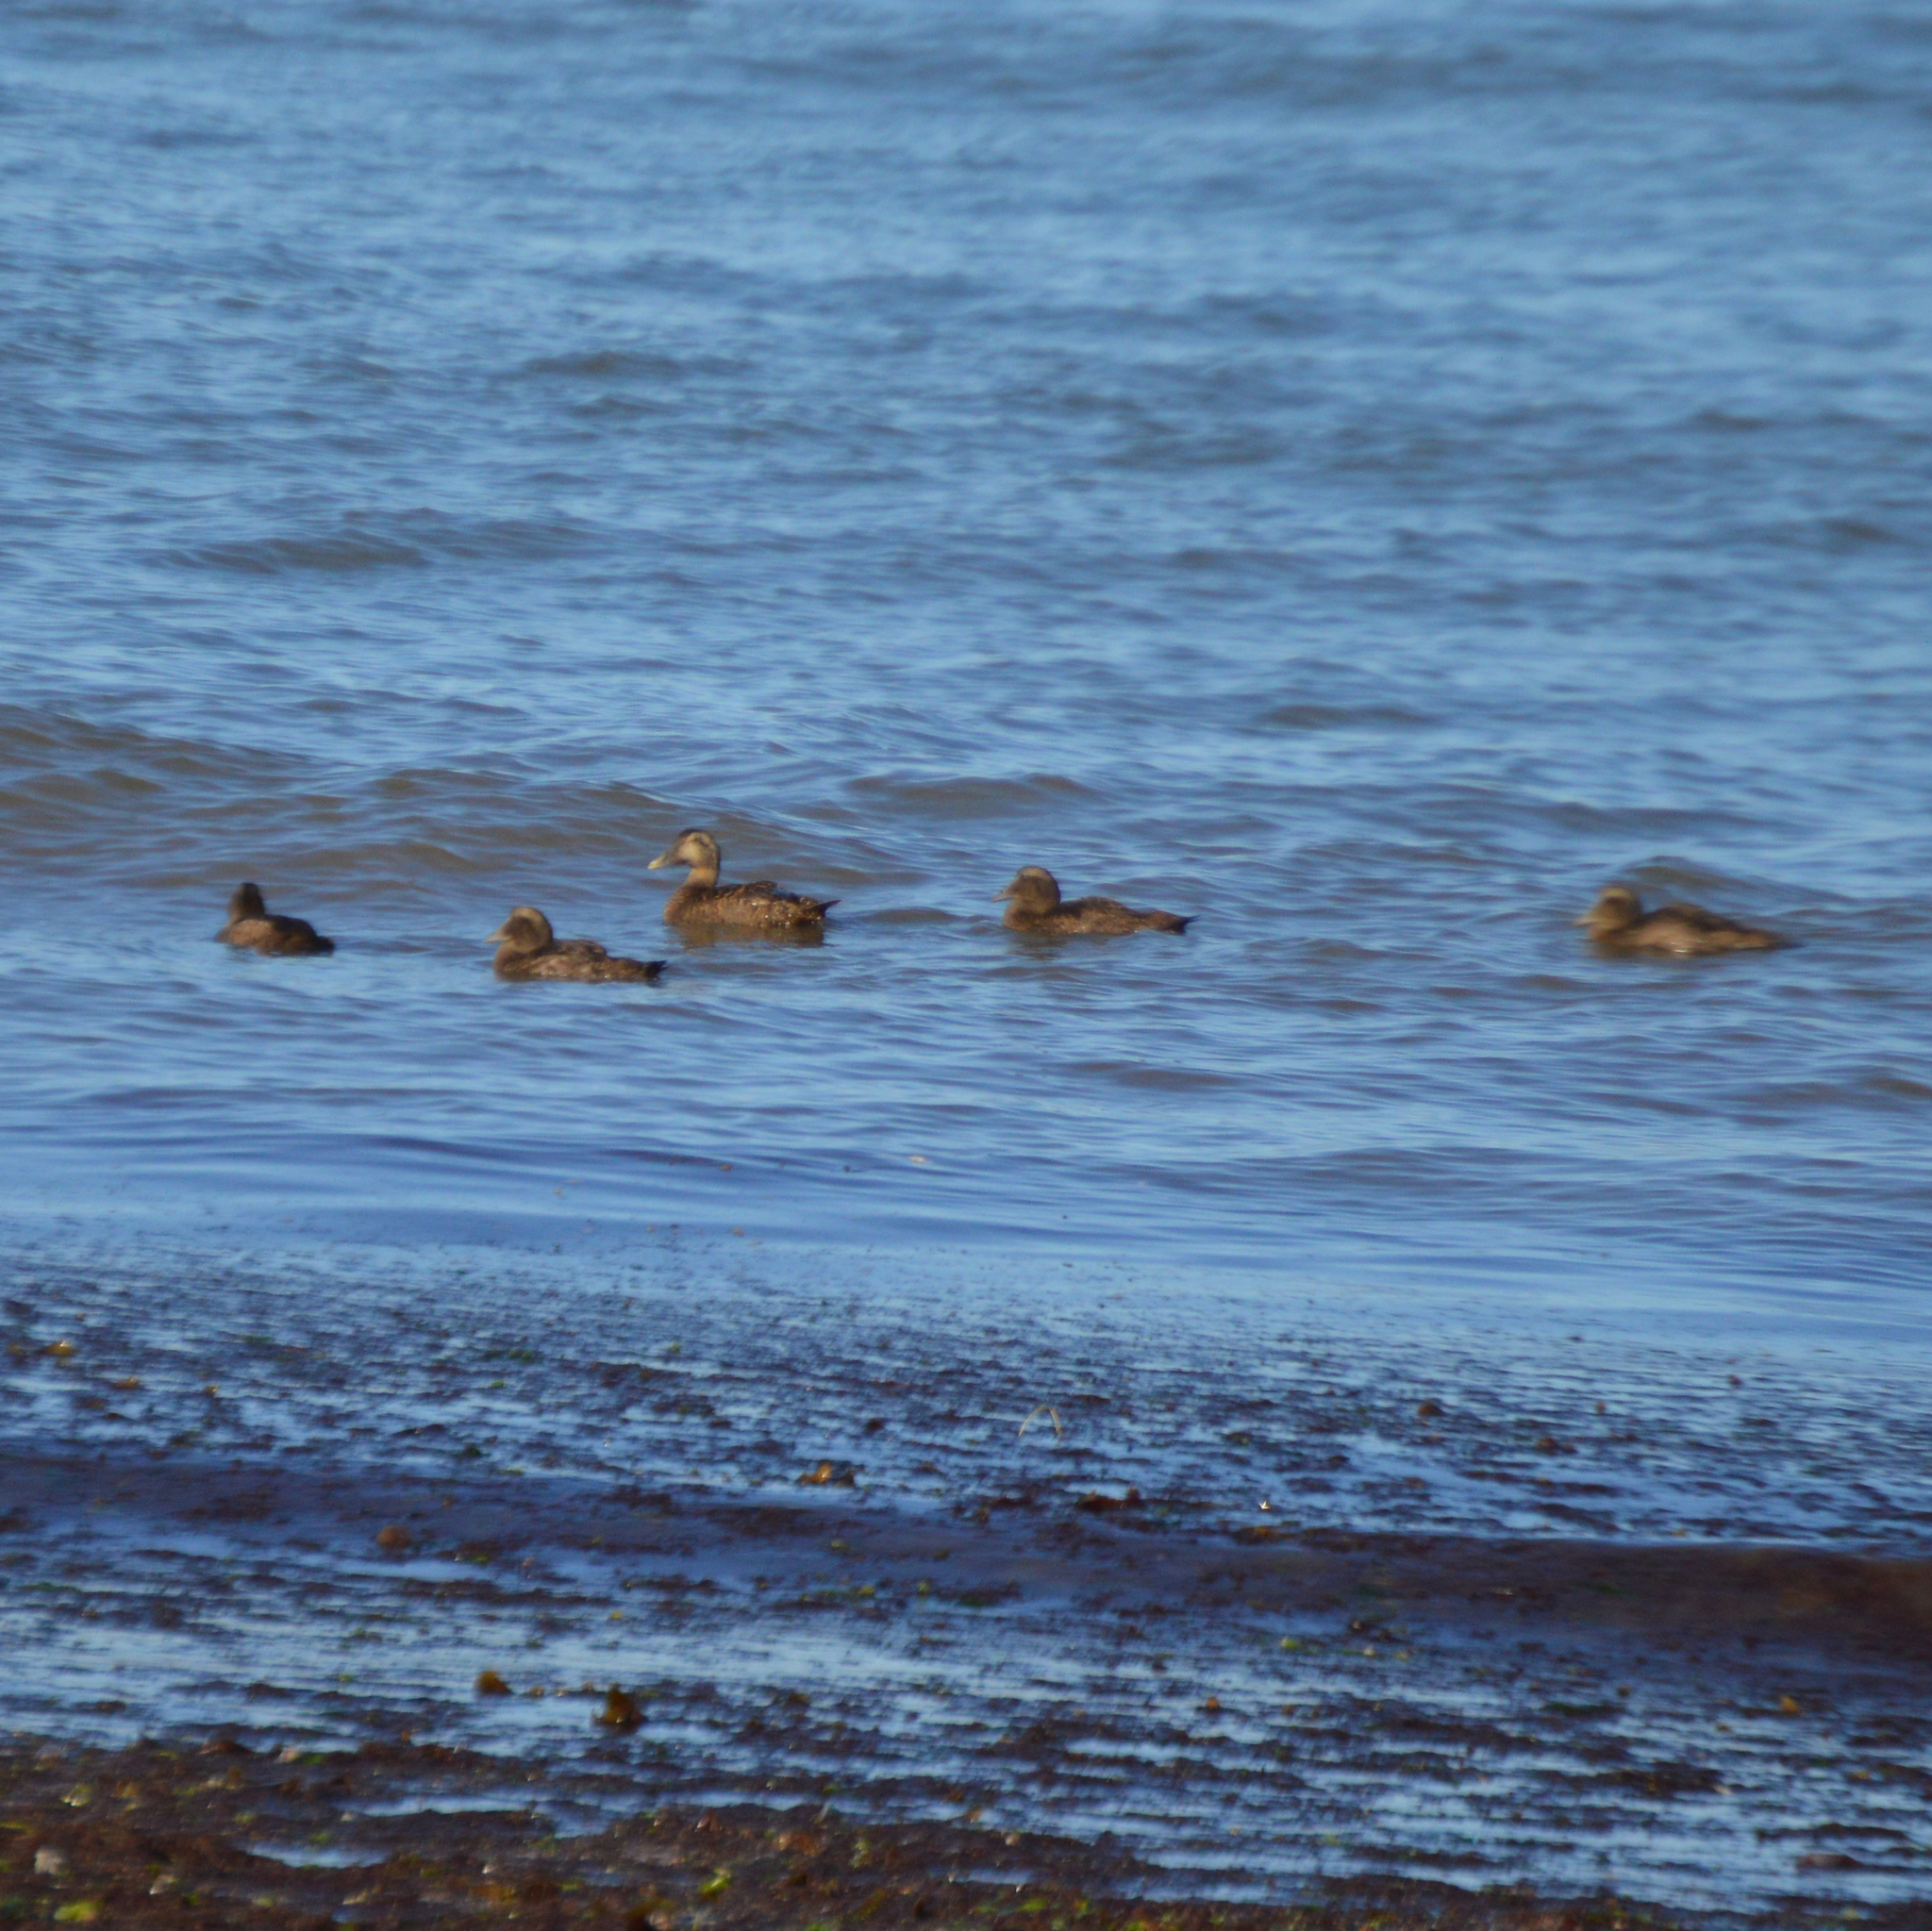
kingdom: Animalia
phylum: Chordata
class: Aves
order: Anseriformes
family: Anatidae
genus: Somateria
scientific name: Somateria mollissima
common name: Common eider
